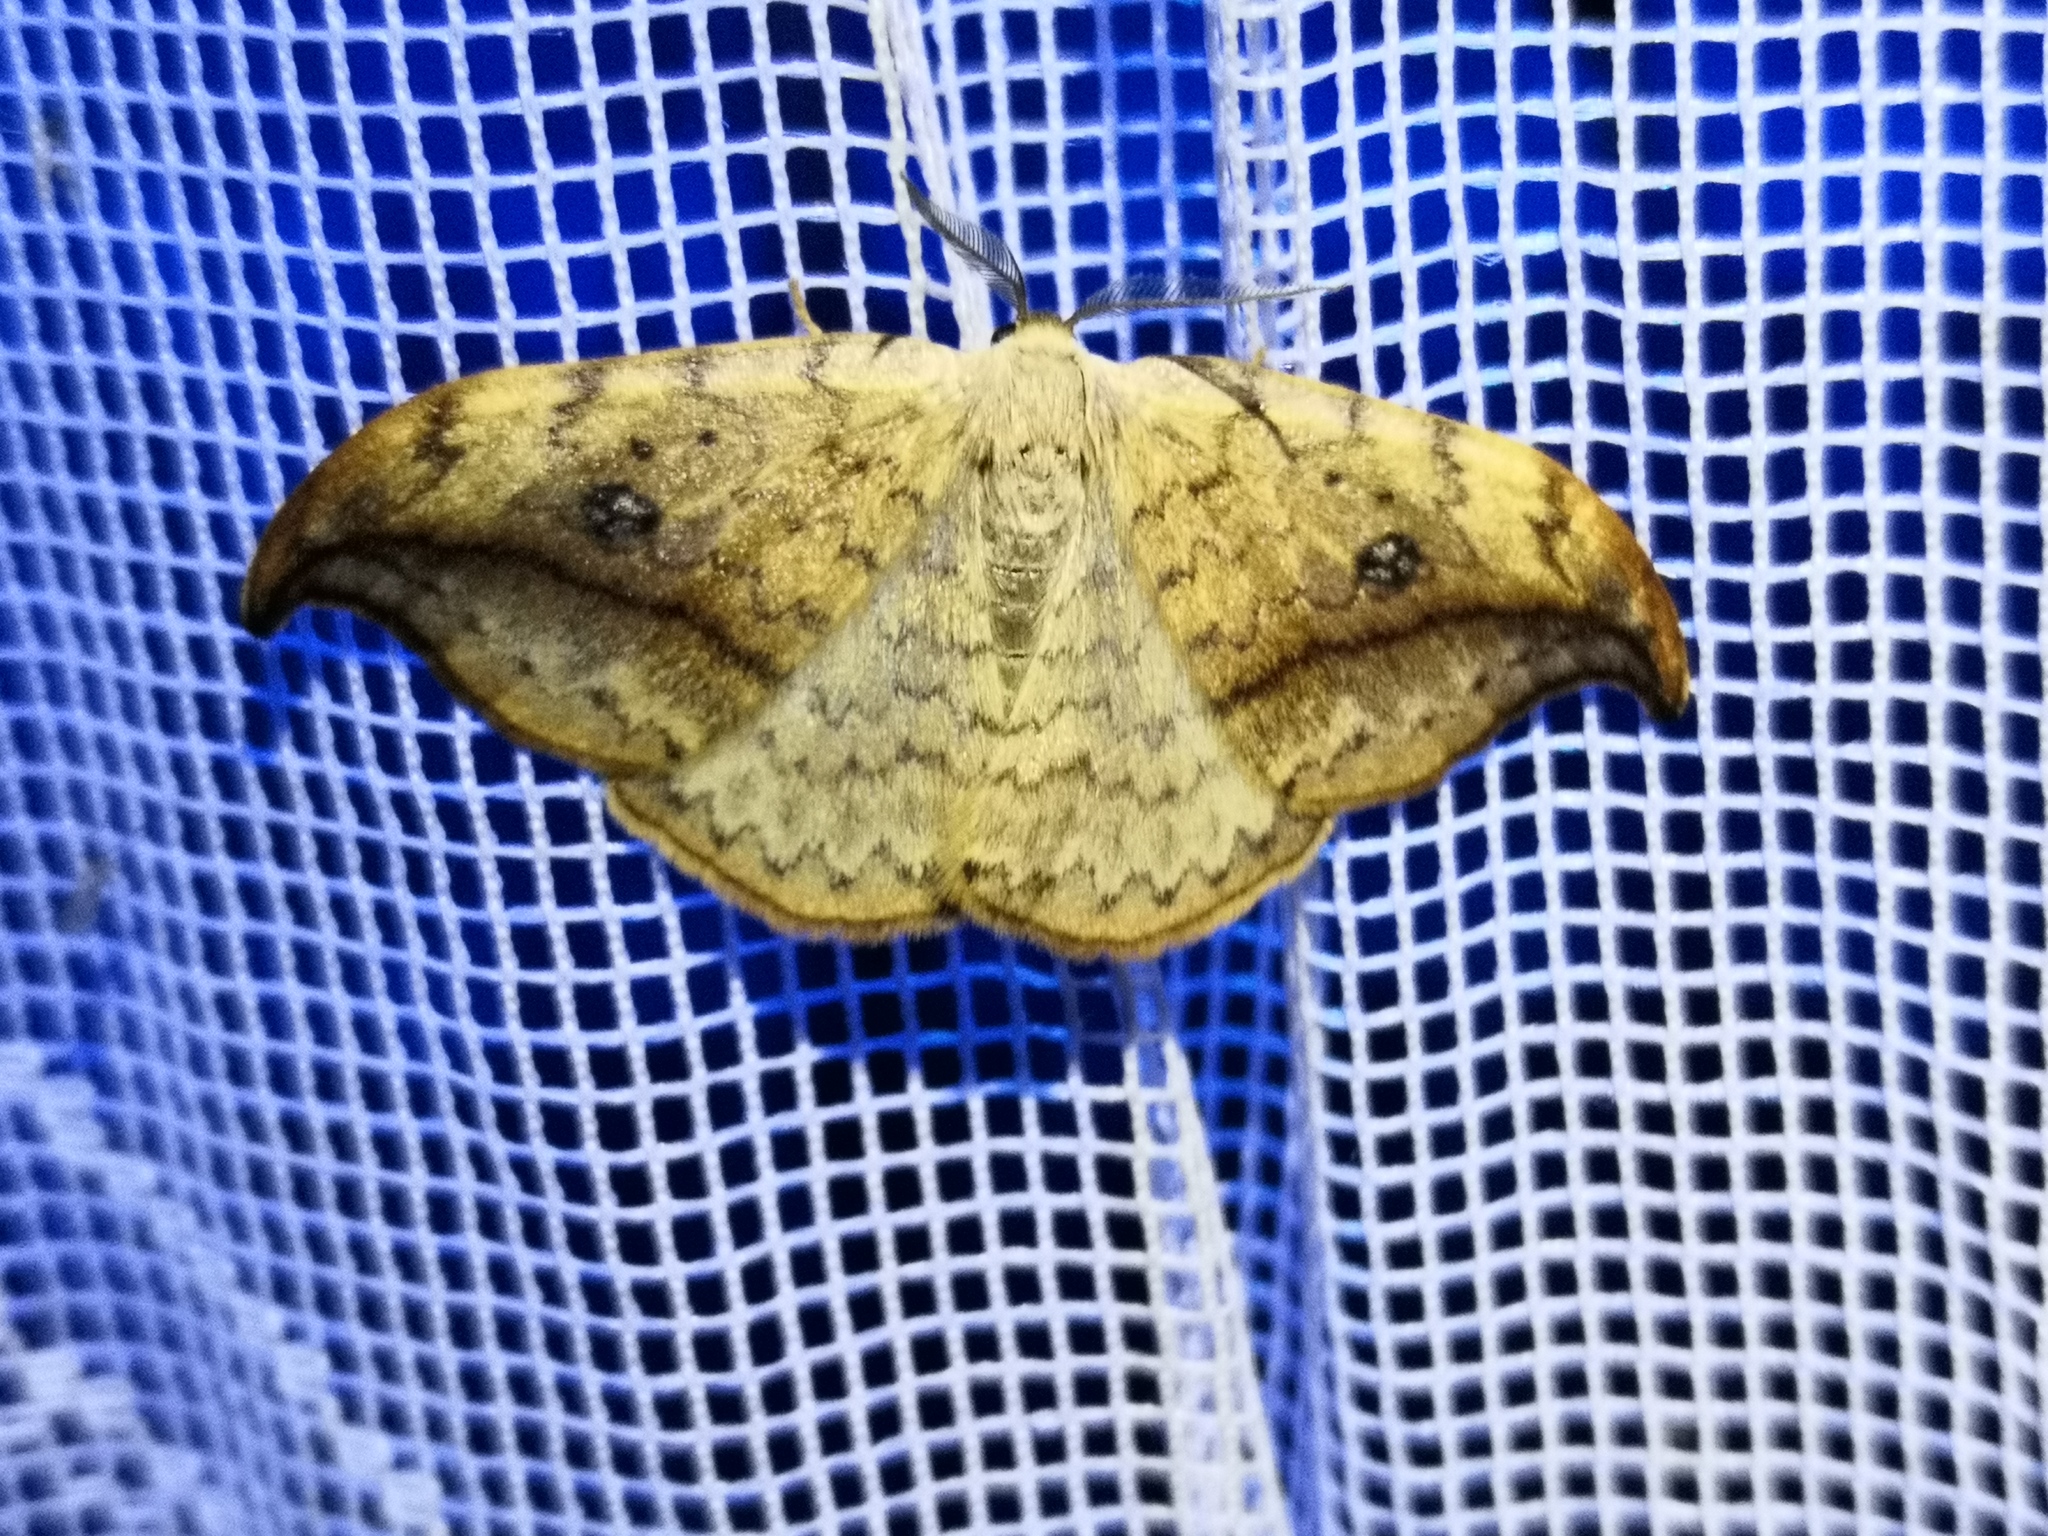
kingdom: Animalia
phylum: Arthropoda
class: Insecta
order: Lepidoptera
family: Drepanidae
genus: Drepana
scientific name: Drepana falcataria
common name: Pebble hook-tip
